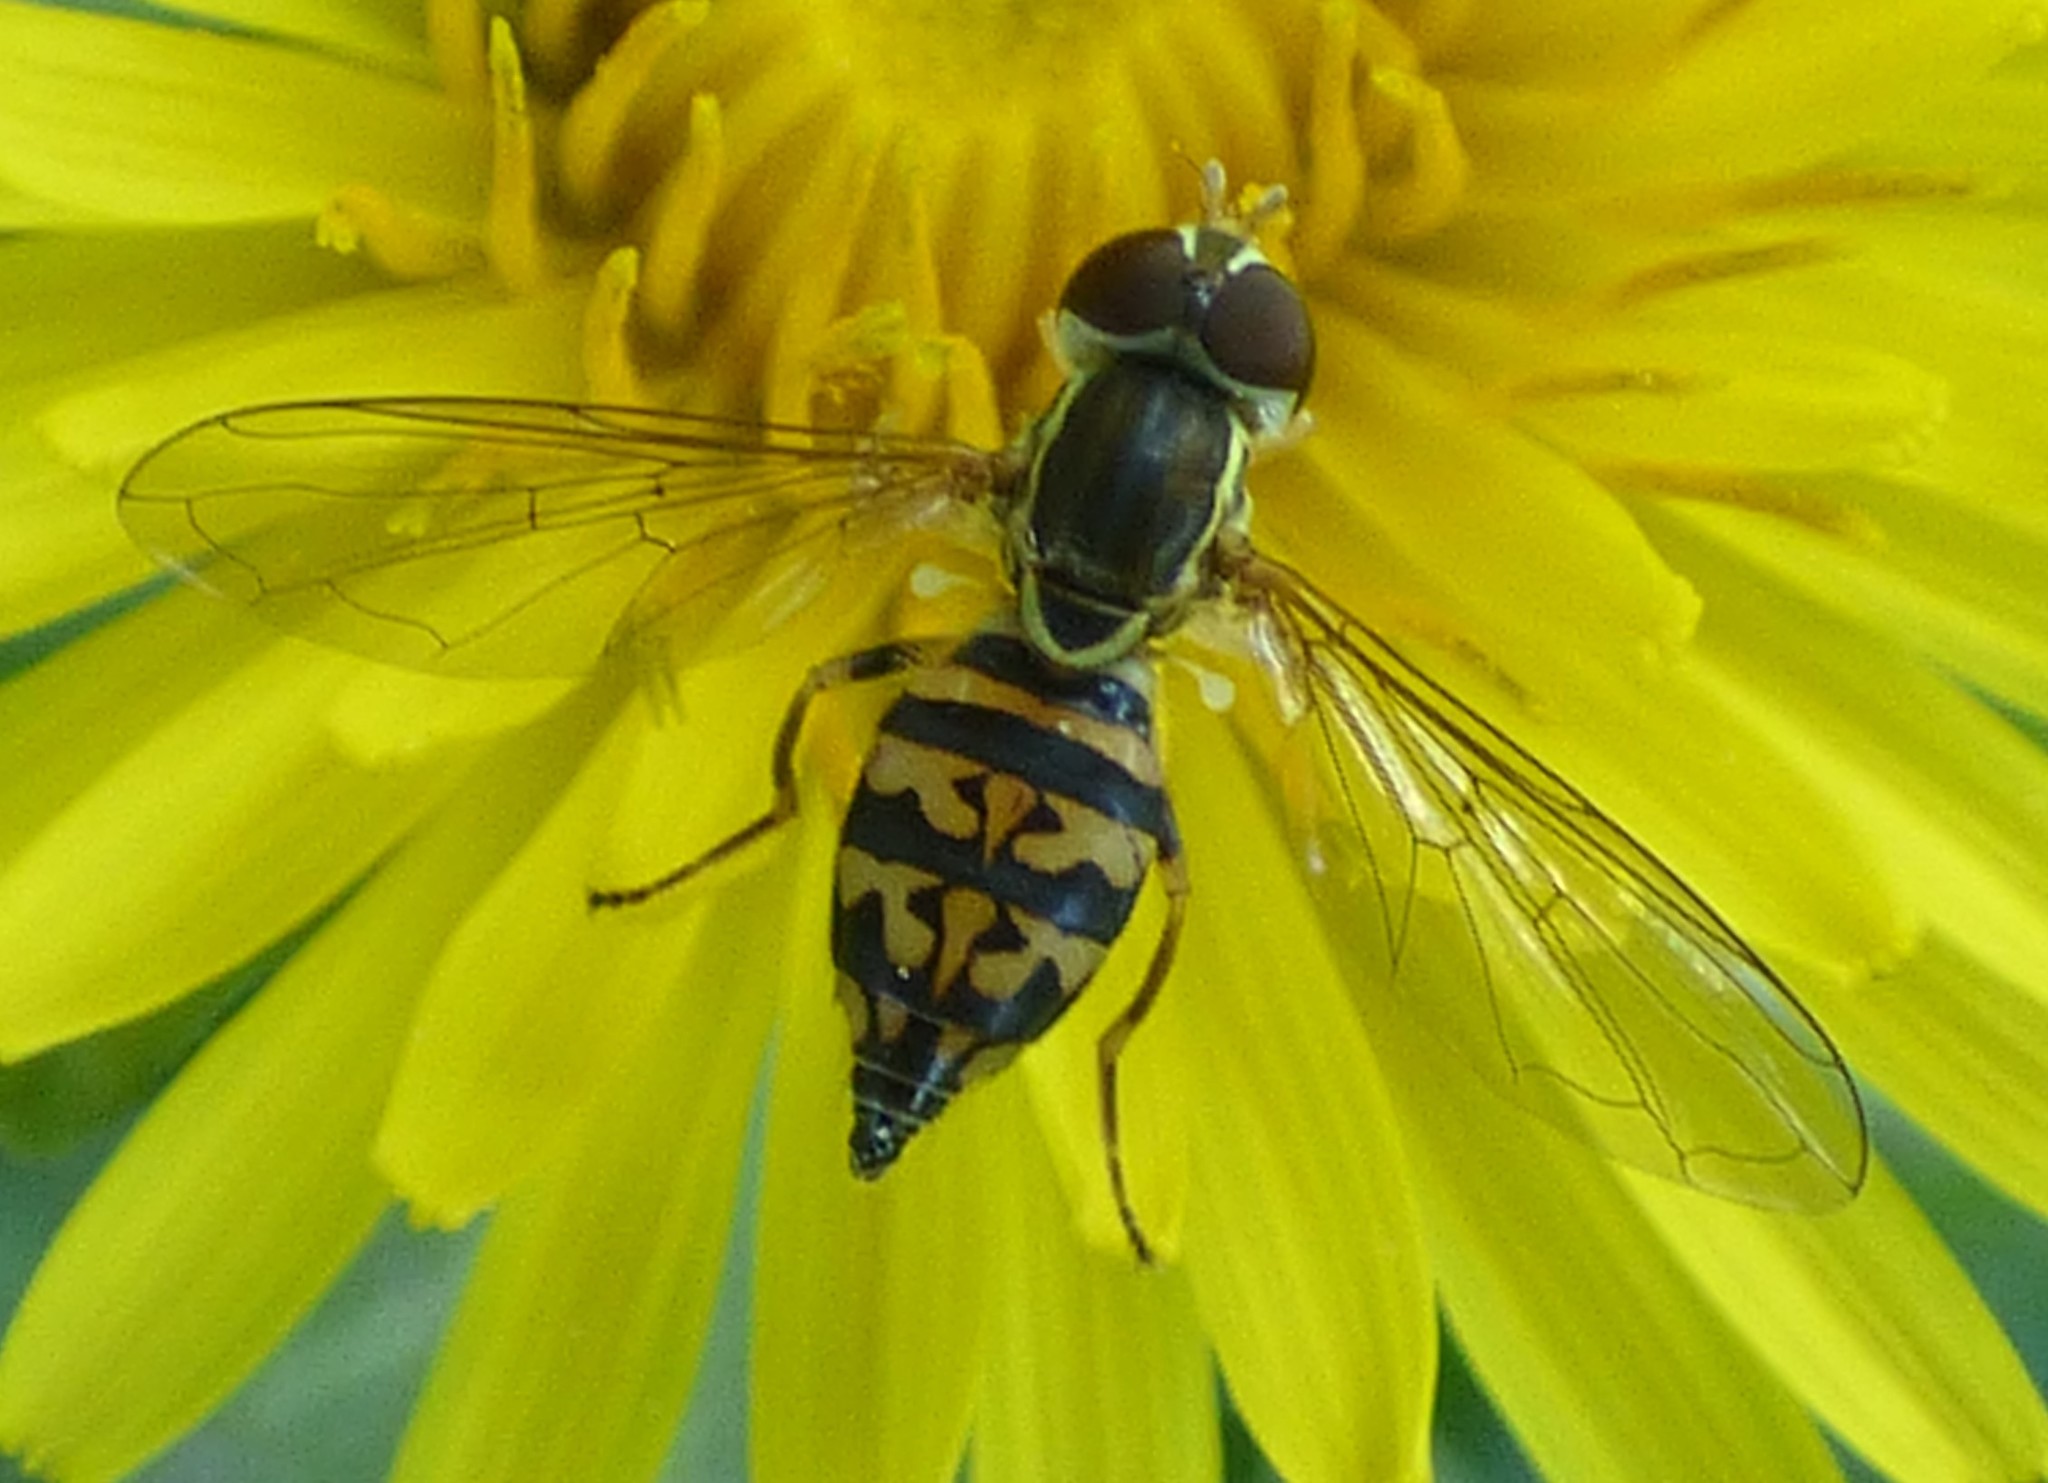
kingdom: Animalia
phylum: Arthropoda
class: Insecta
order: Diptera
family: Syrphidae
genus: Toxomerus
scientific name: Toxomerus geminatus
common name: Eastern calligrapher
